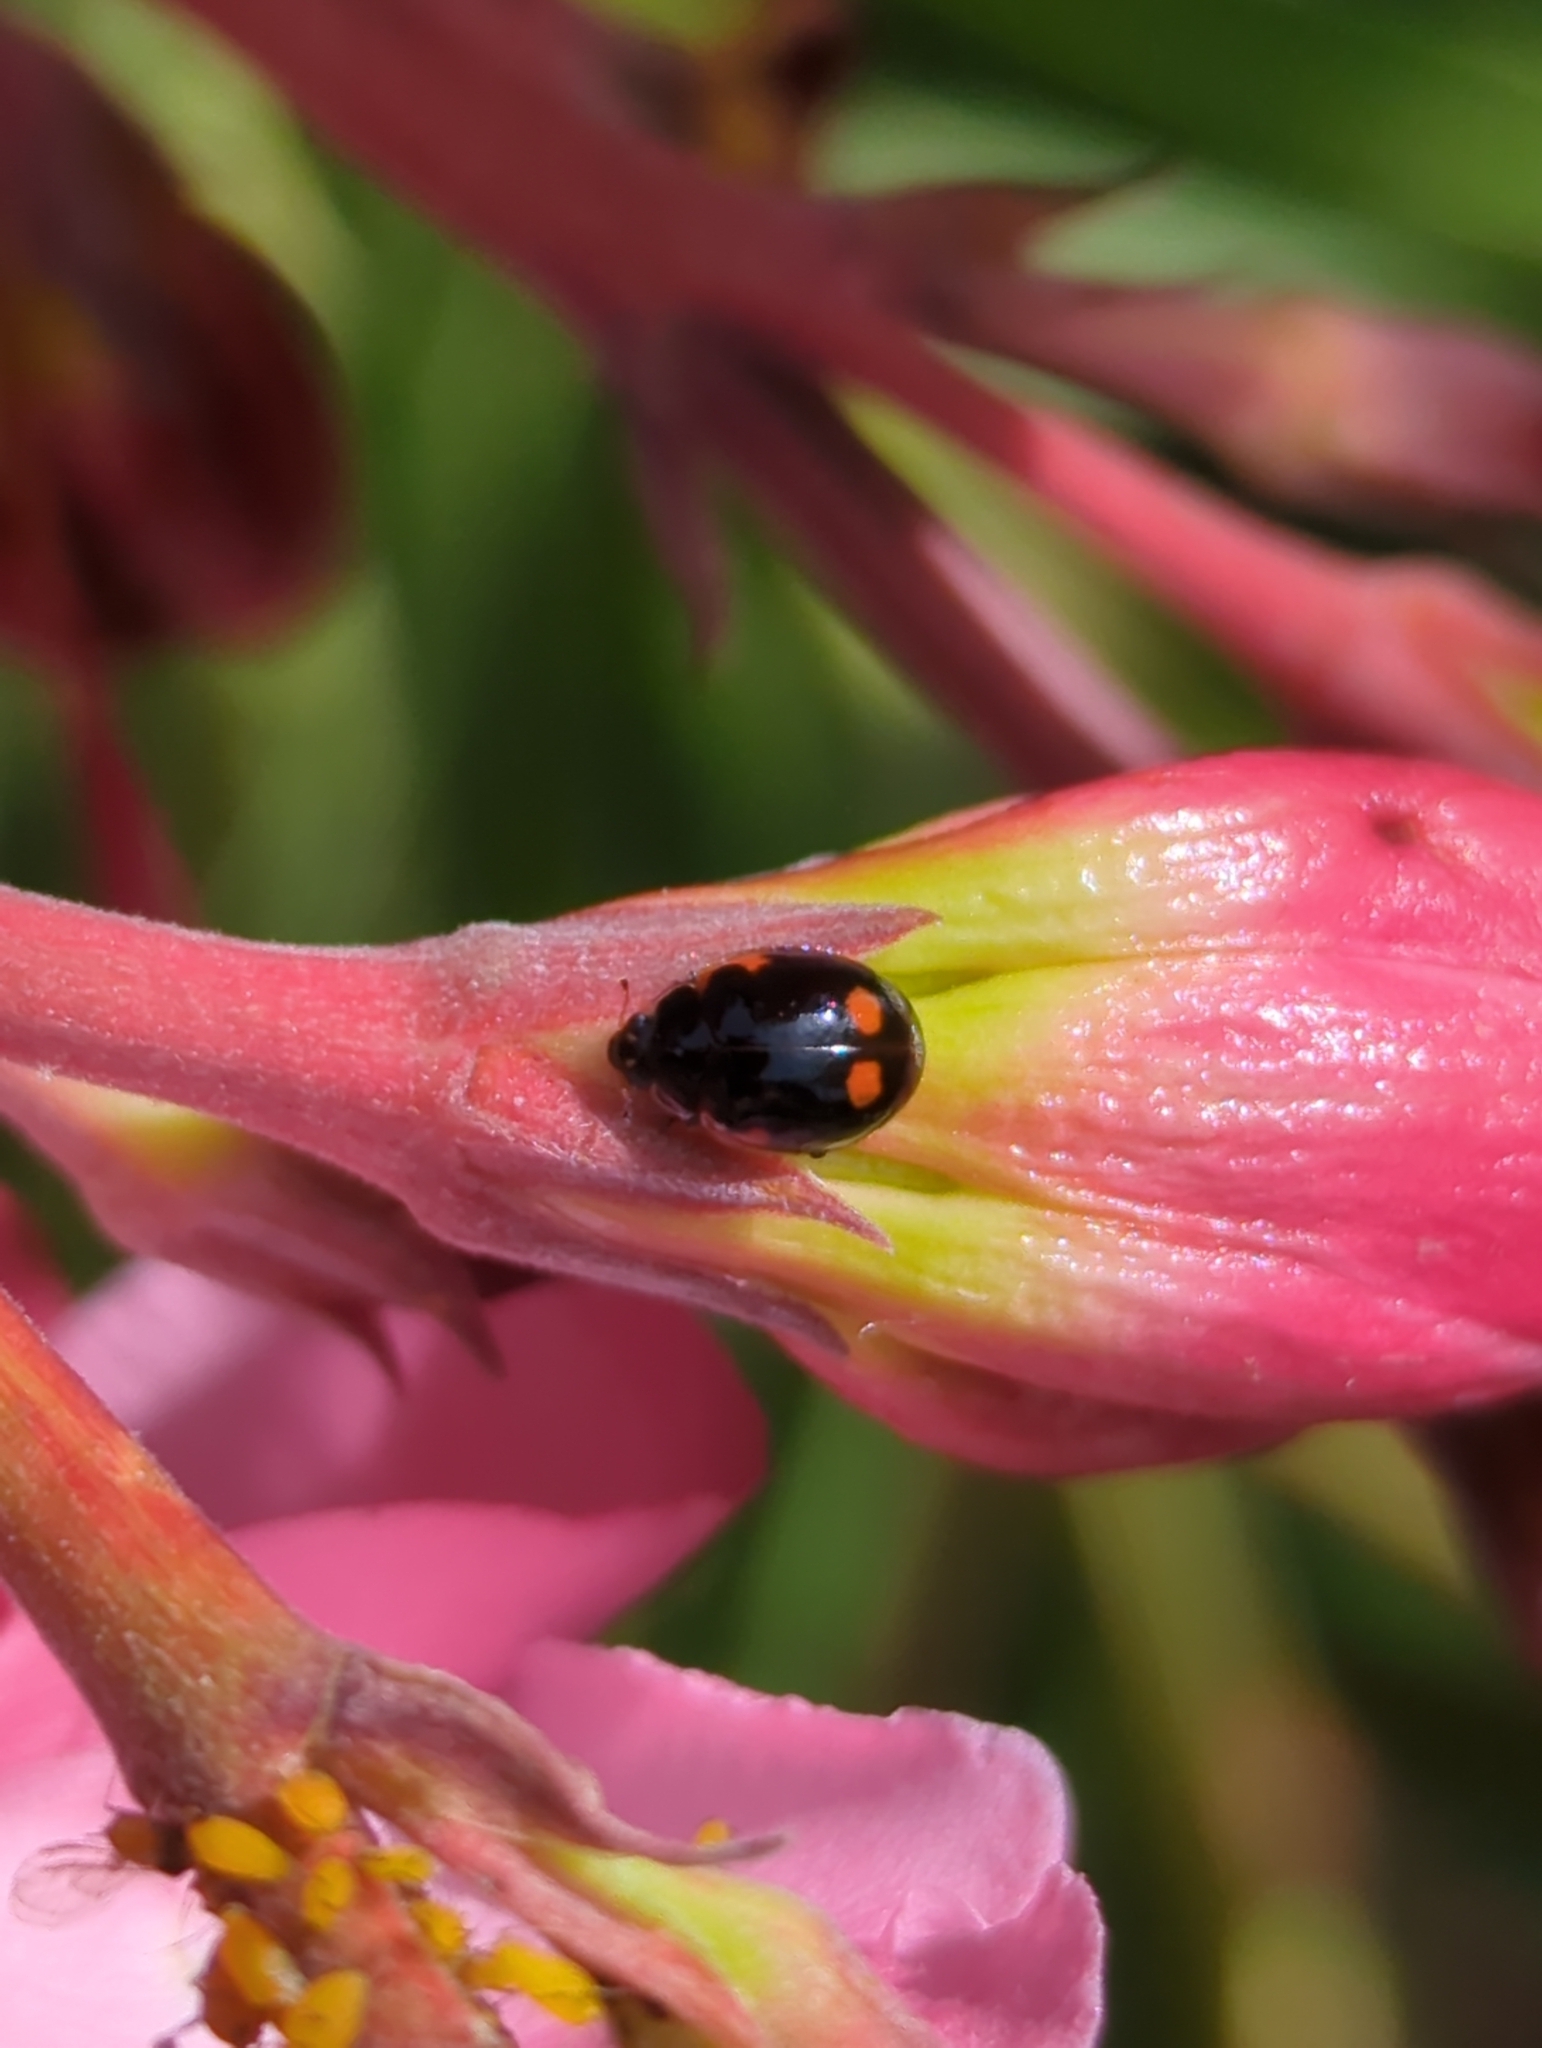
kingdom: Animalia
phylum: Arthropoda
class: Insecta
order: Coleoptera
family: Coccinellidae
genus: Adalia
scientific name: Adalia bipunctata
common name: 2-spot ladybird
